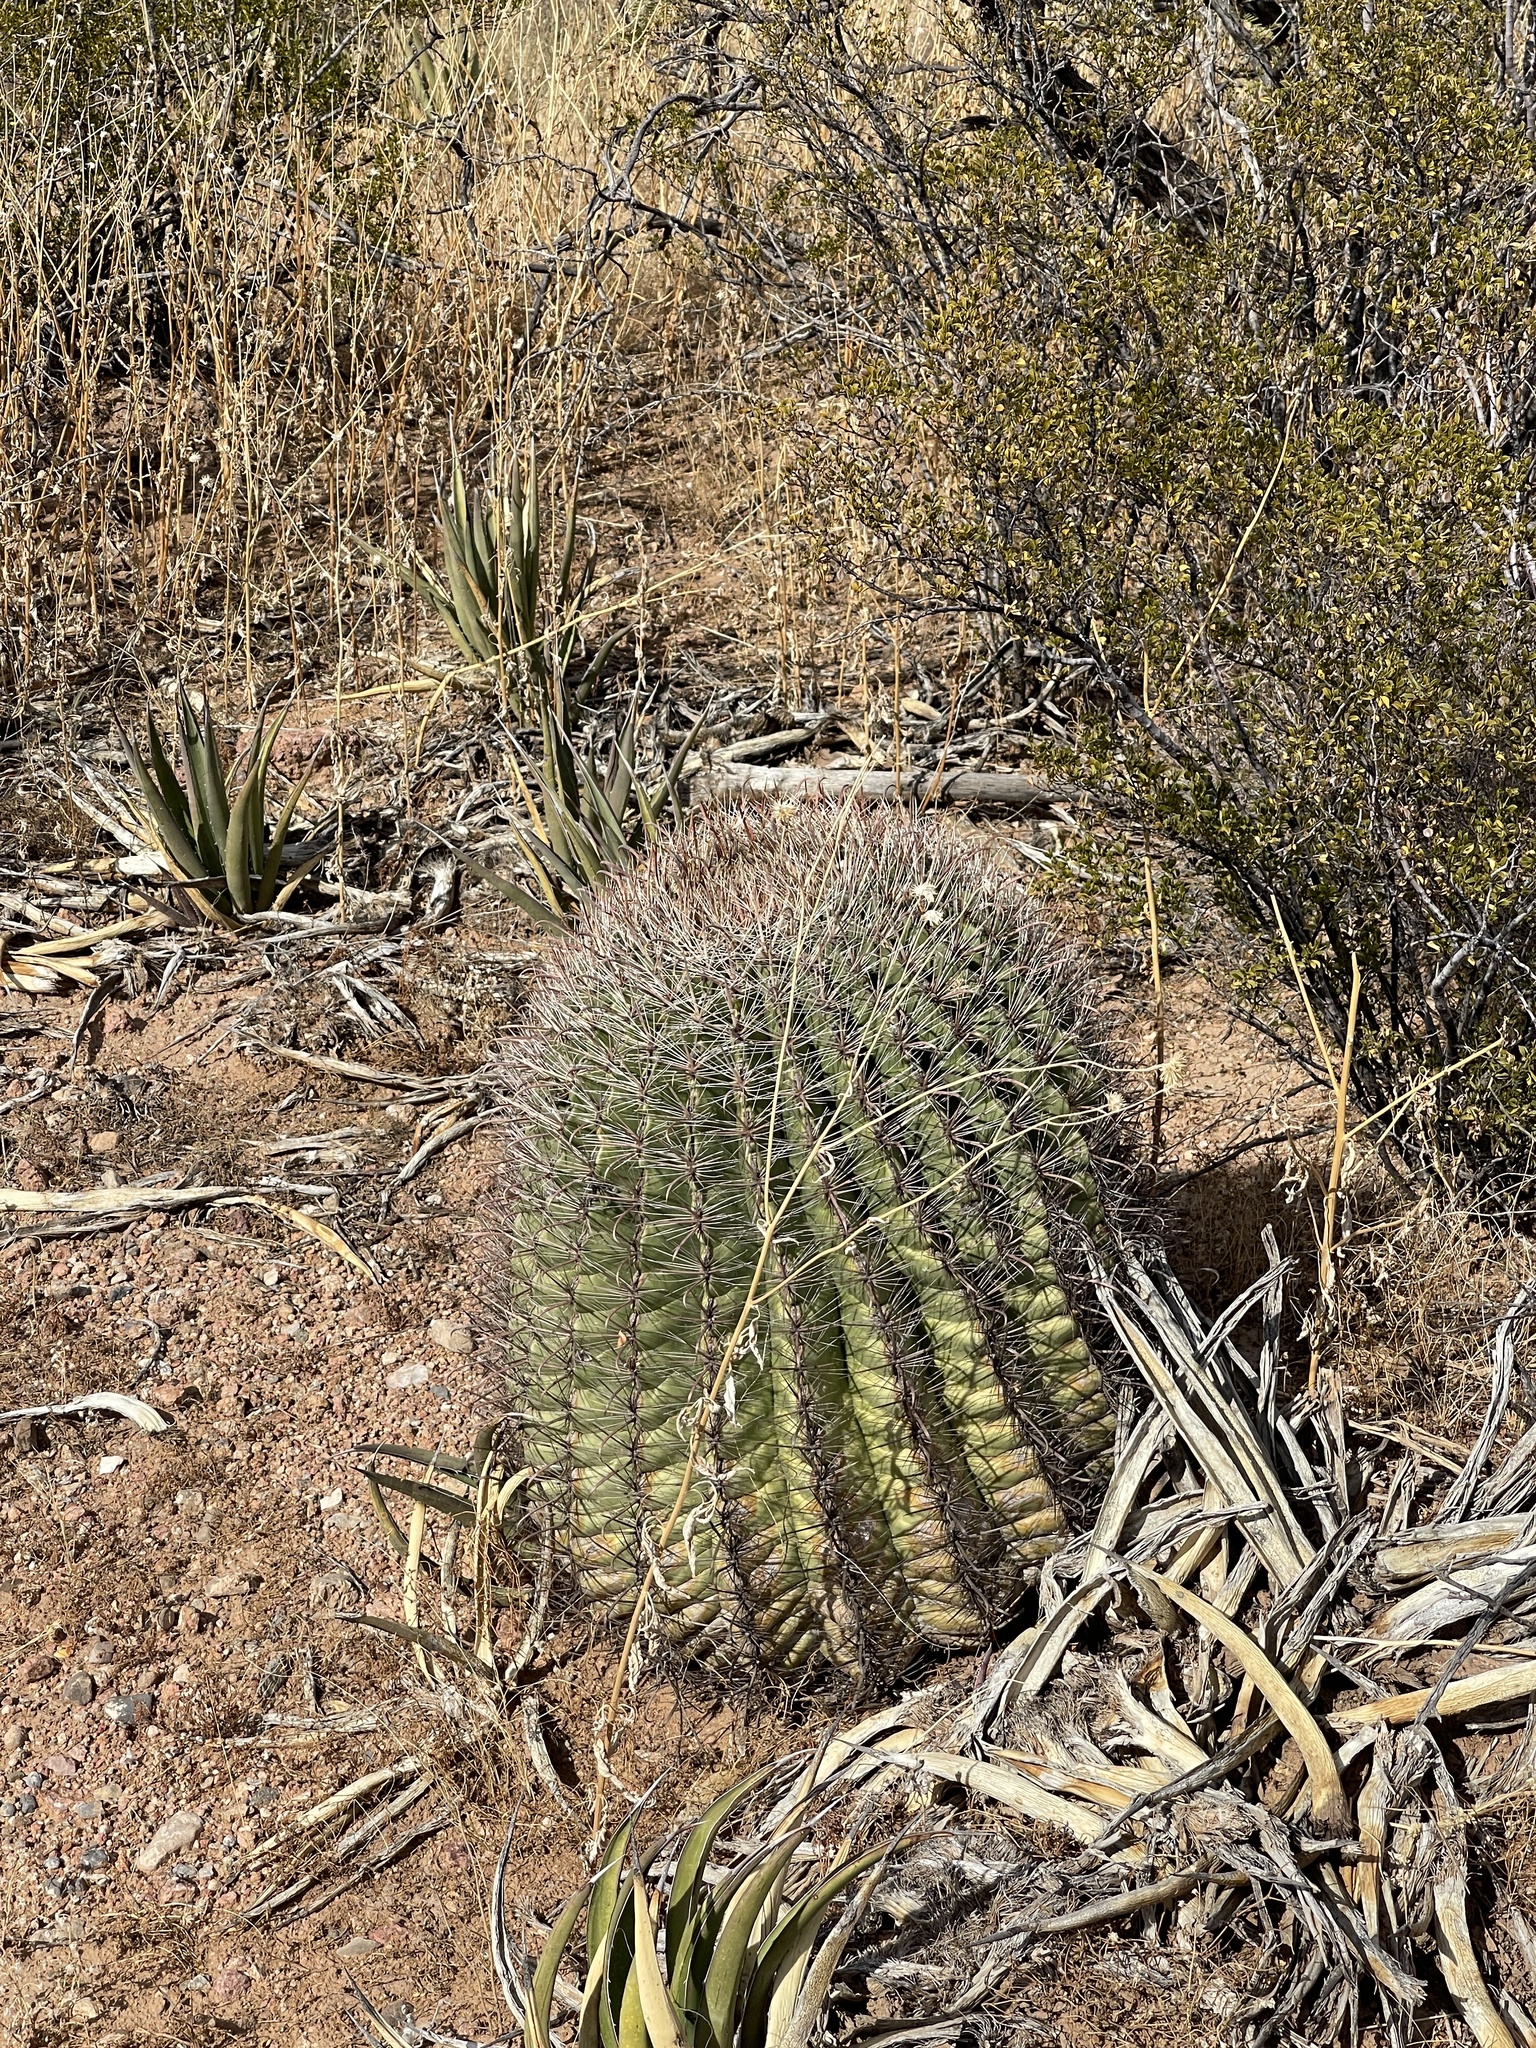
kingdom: Plantae
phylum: Tracheophyta
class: Magnoliopsida
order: Caryophyllales
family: Cactaceae
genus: Ferocactus
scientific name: Ferocactus wislizeni
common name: Candy barrel cactus
